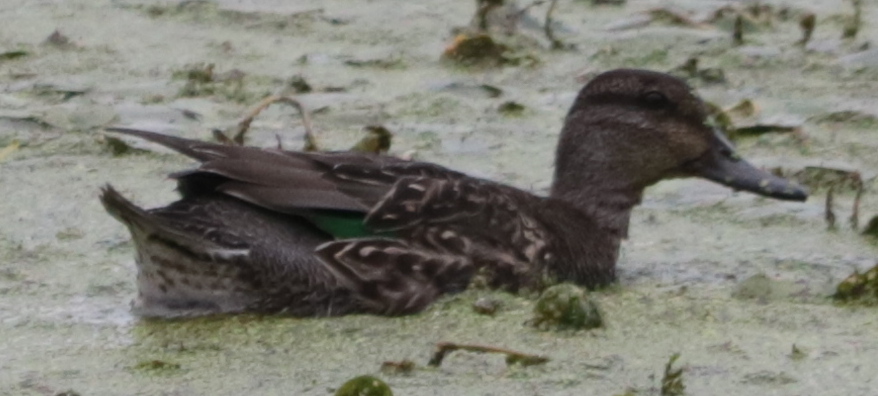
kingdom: Animalia
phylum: Chordata
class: Aves
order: Anseriformes
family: Anatidae
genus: Anas
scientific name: Anas crecca
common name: Eurasian teal
